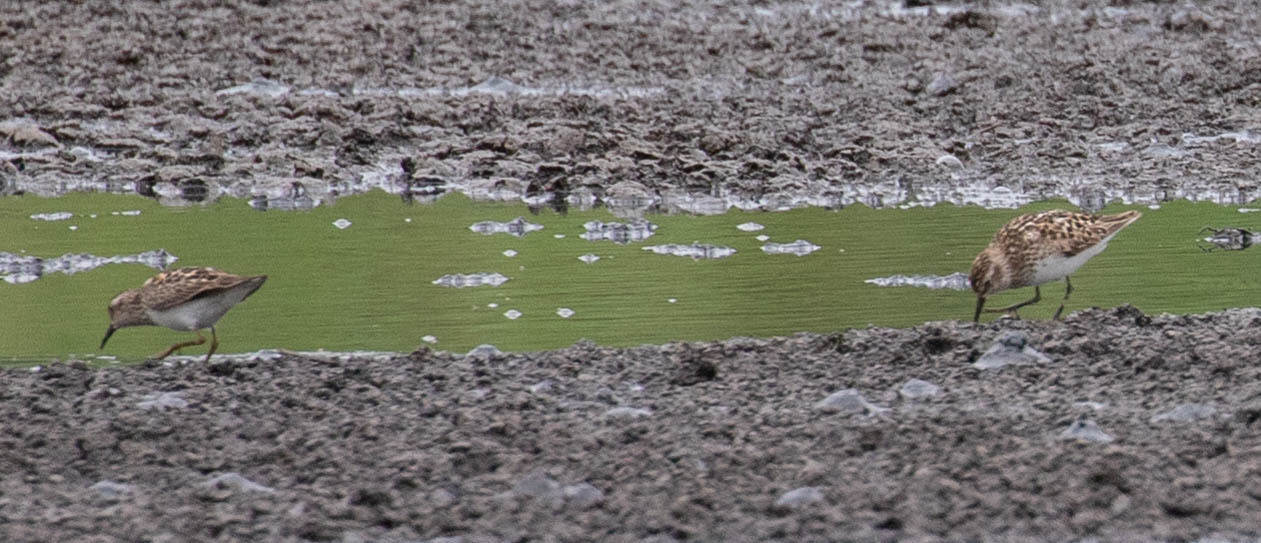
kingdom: Animalia
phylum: Chordata
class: Aves
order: Charadriiformes
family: Scolopacidae
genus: Calidris
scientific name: Calidris minutilla
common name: Least sandpiper
